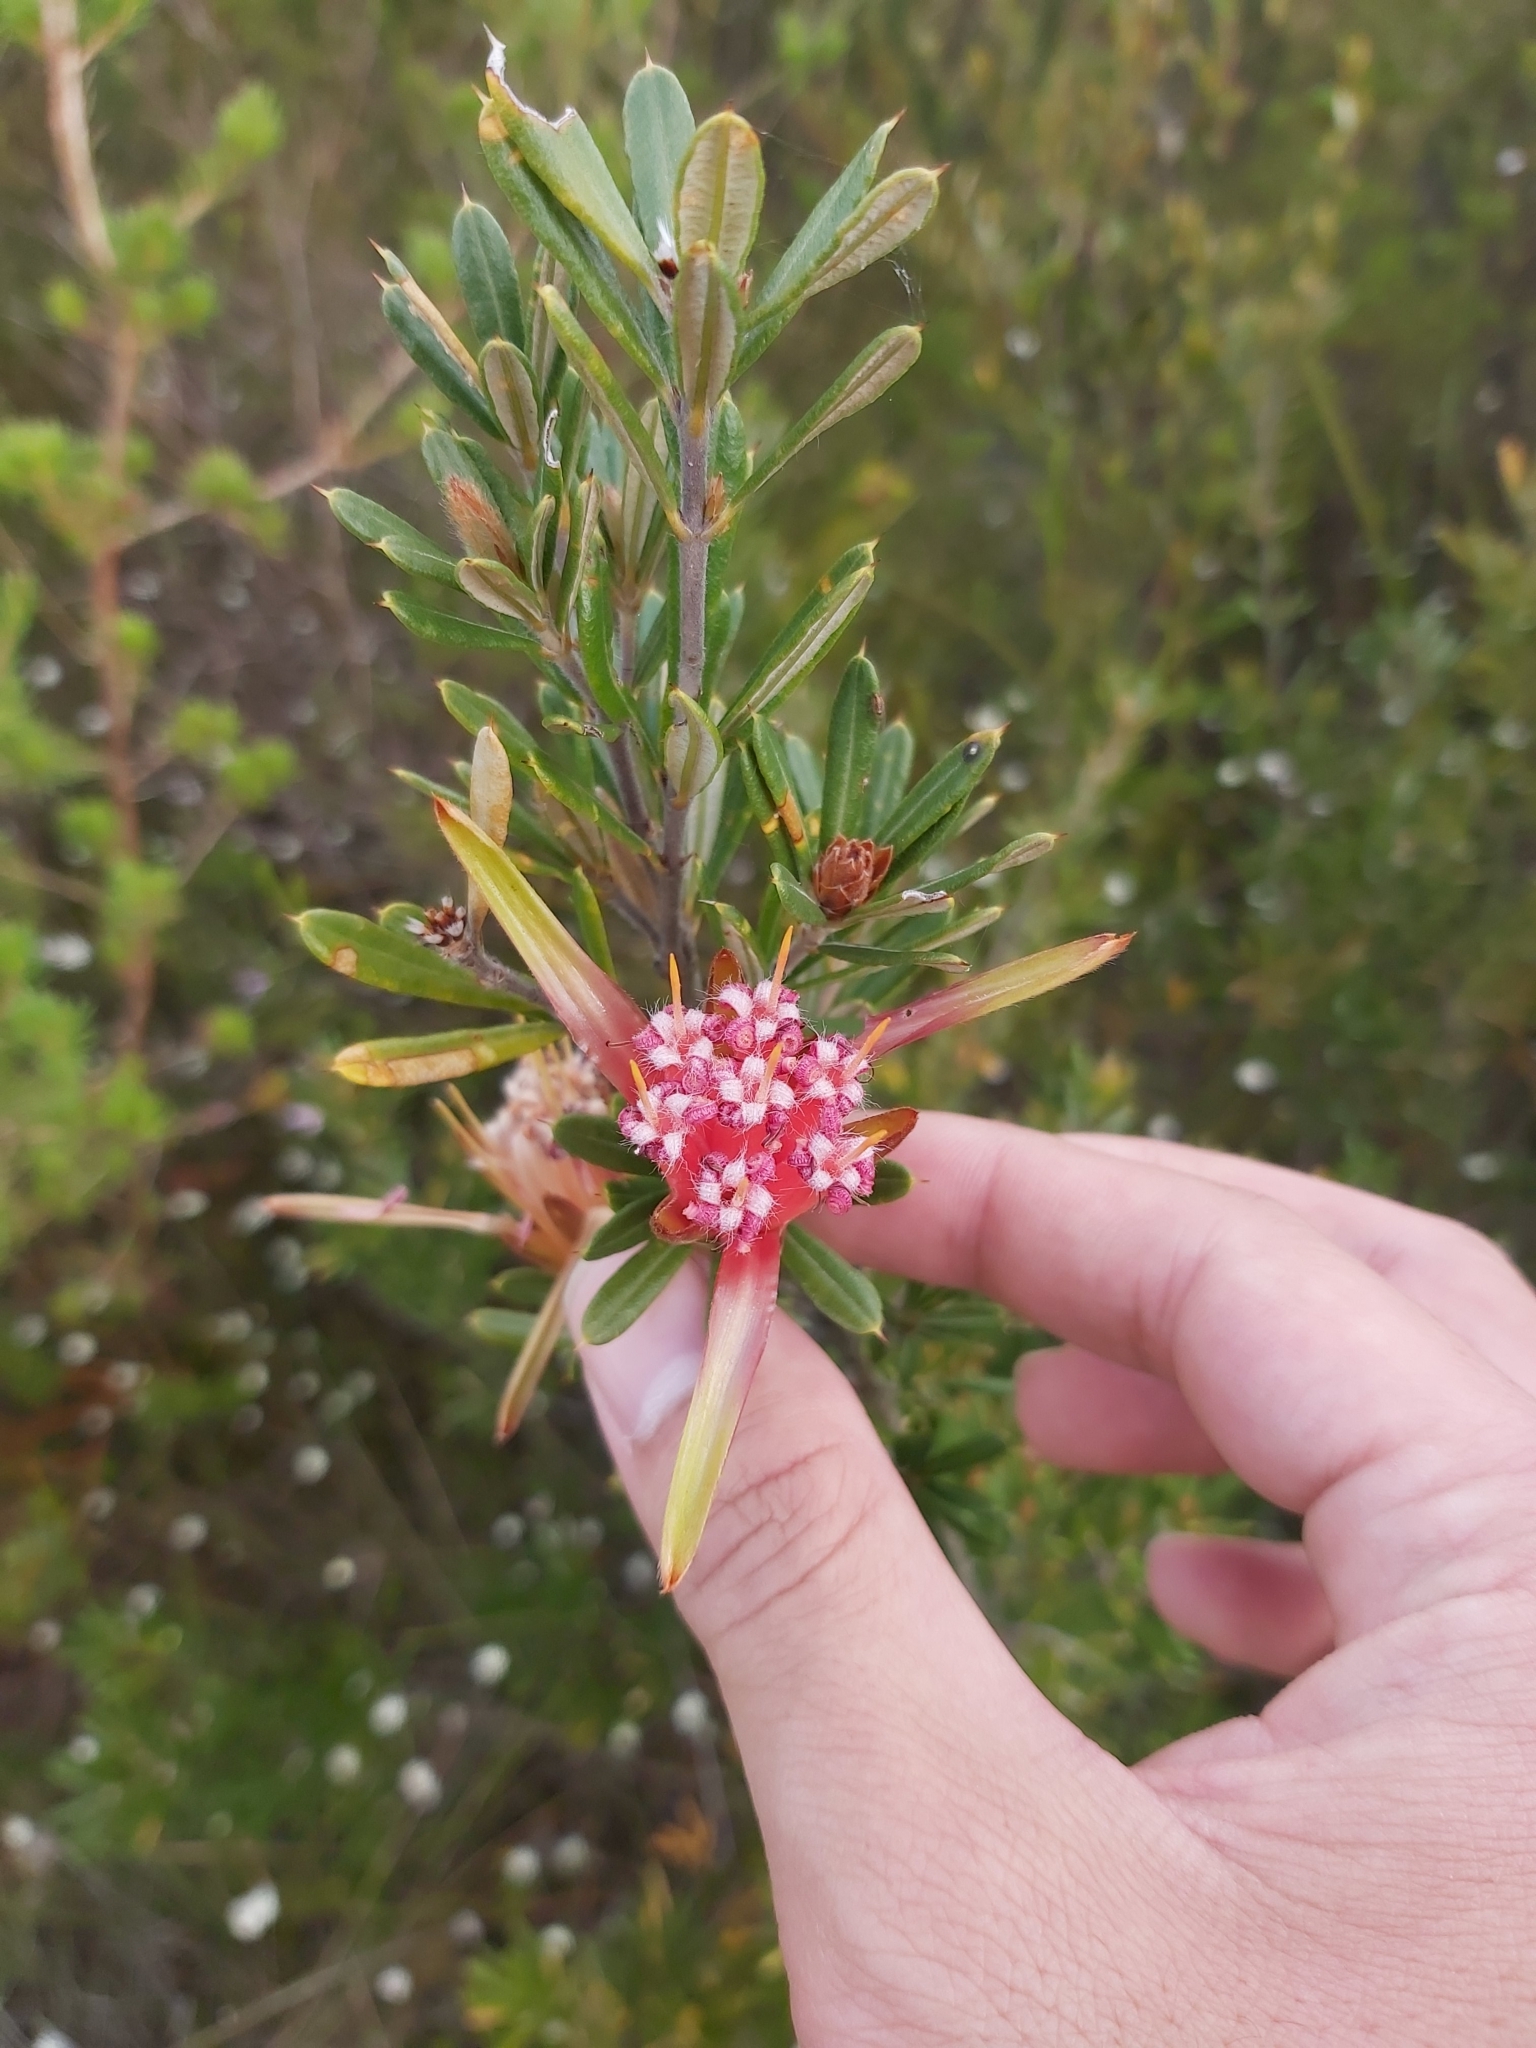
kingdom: Plantae
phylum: Tracheophyta
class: Magnoliopsida
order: Proteales
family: Proteaceae
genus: Lambertia
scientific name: Lambertia formosa
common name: Mountain-devil
